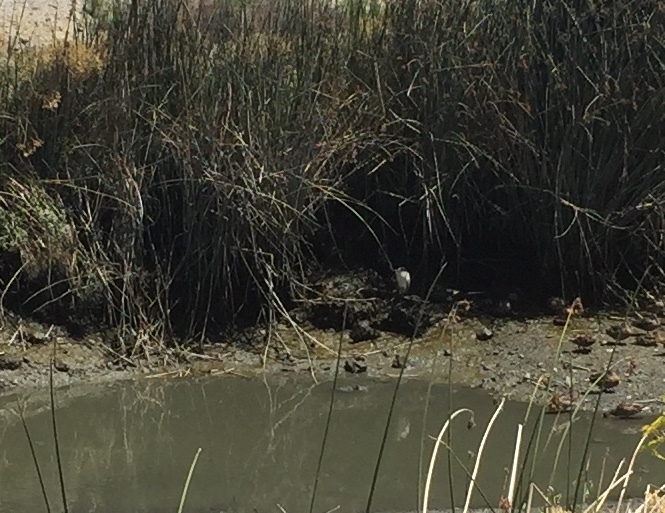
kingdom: Animalia
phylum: Chordata
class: Aves
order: Pelecaniformes
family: Ardeidae
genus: Nycticorax
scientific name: Nycticorax nycticorax
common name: Black-crowned night heron
